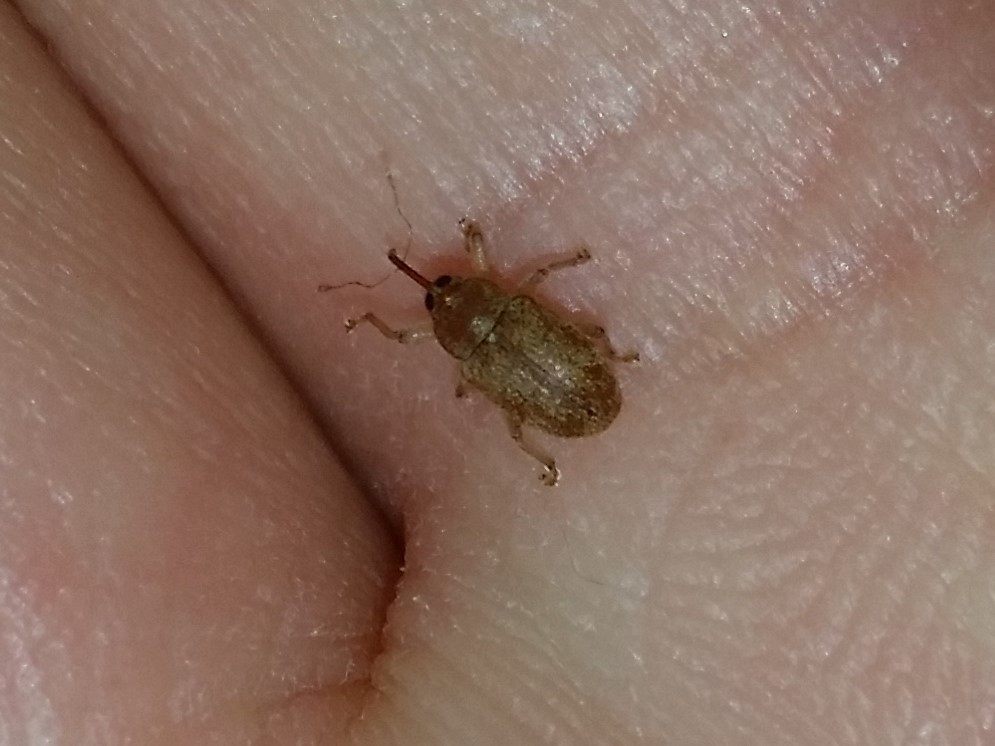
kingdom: Animalia
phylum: Arthropoda
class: Insecta
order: Coleoptera
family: Curculionidae
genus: Lignyodes
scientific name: Lignyodes helvolus
